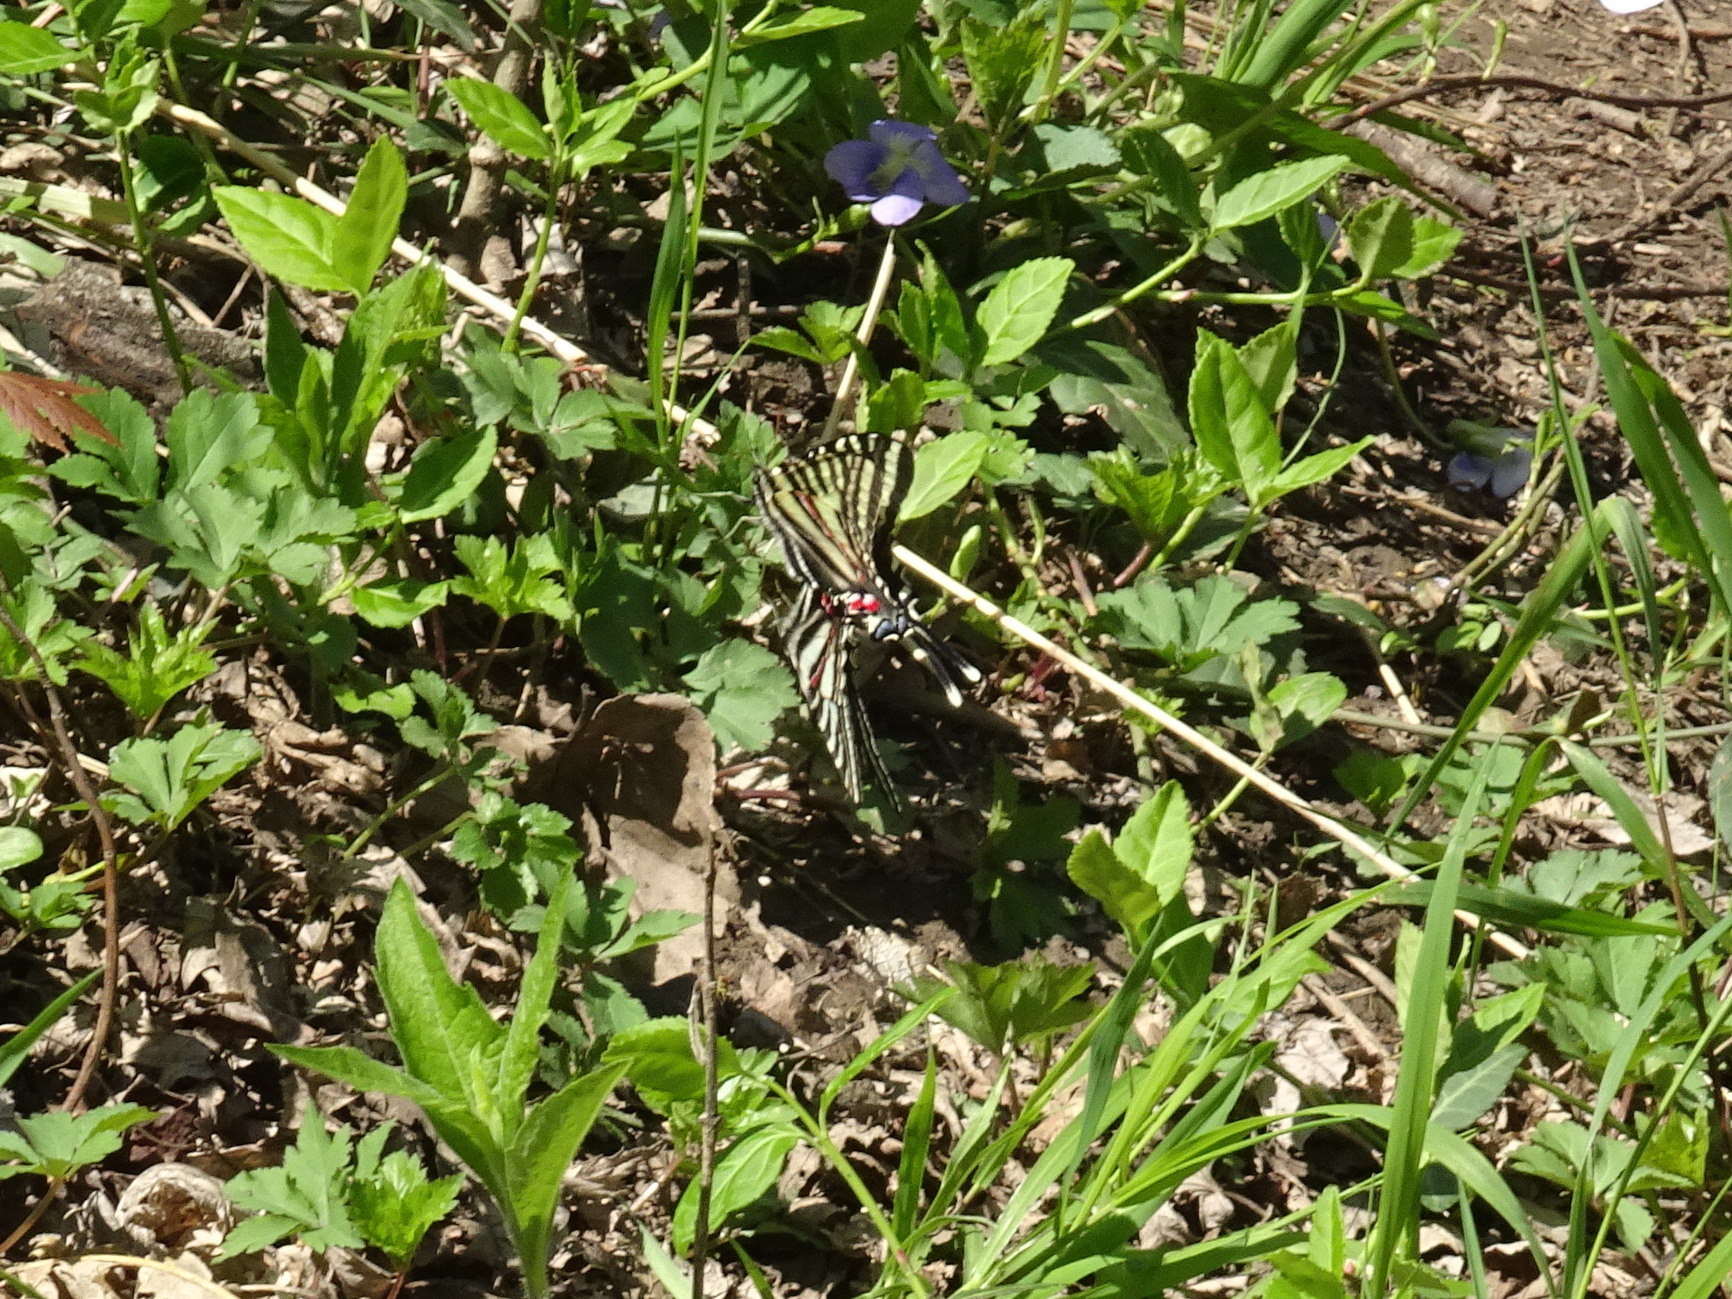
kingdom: Animalia
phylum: Arthropoda
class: Insecta
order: Lepidoptera
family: Papilionidae
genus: Protographium
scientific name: Protographium marcellus
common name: Zebra swallowtail
